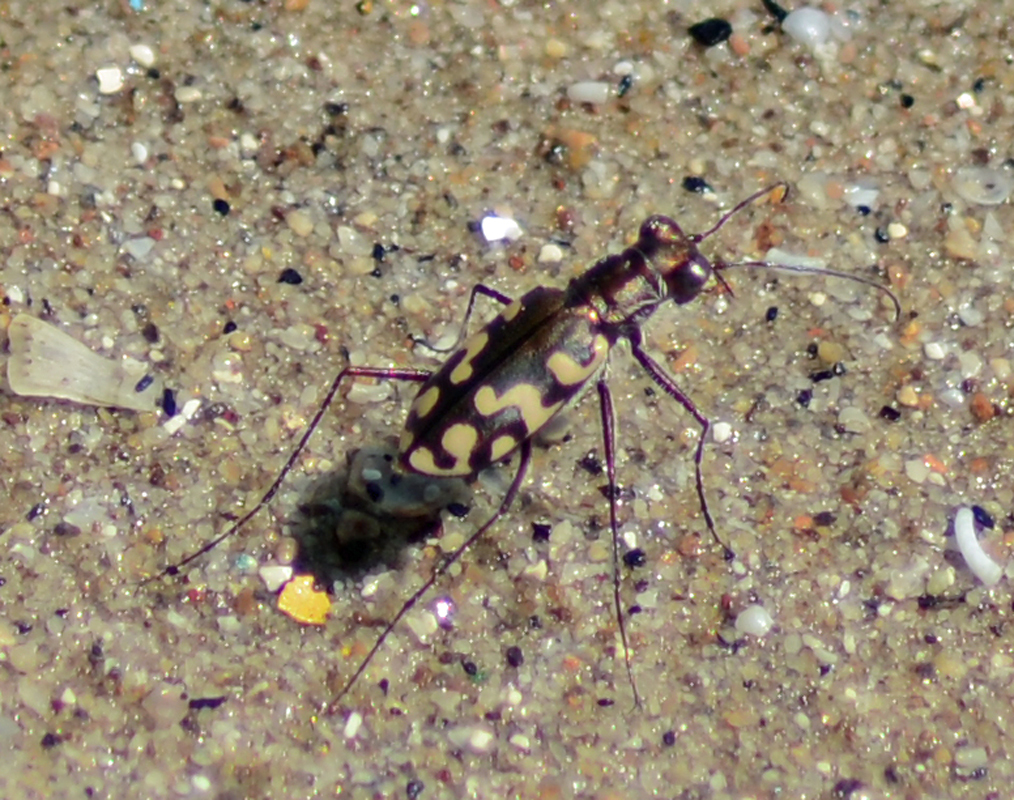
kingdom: Animalia
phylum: Arthropoda
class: Insecta
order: Coleoptera
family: Carabidae
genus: Cicindela
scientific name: Cicindela carthagena
